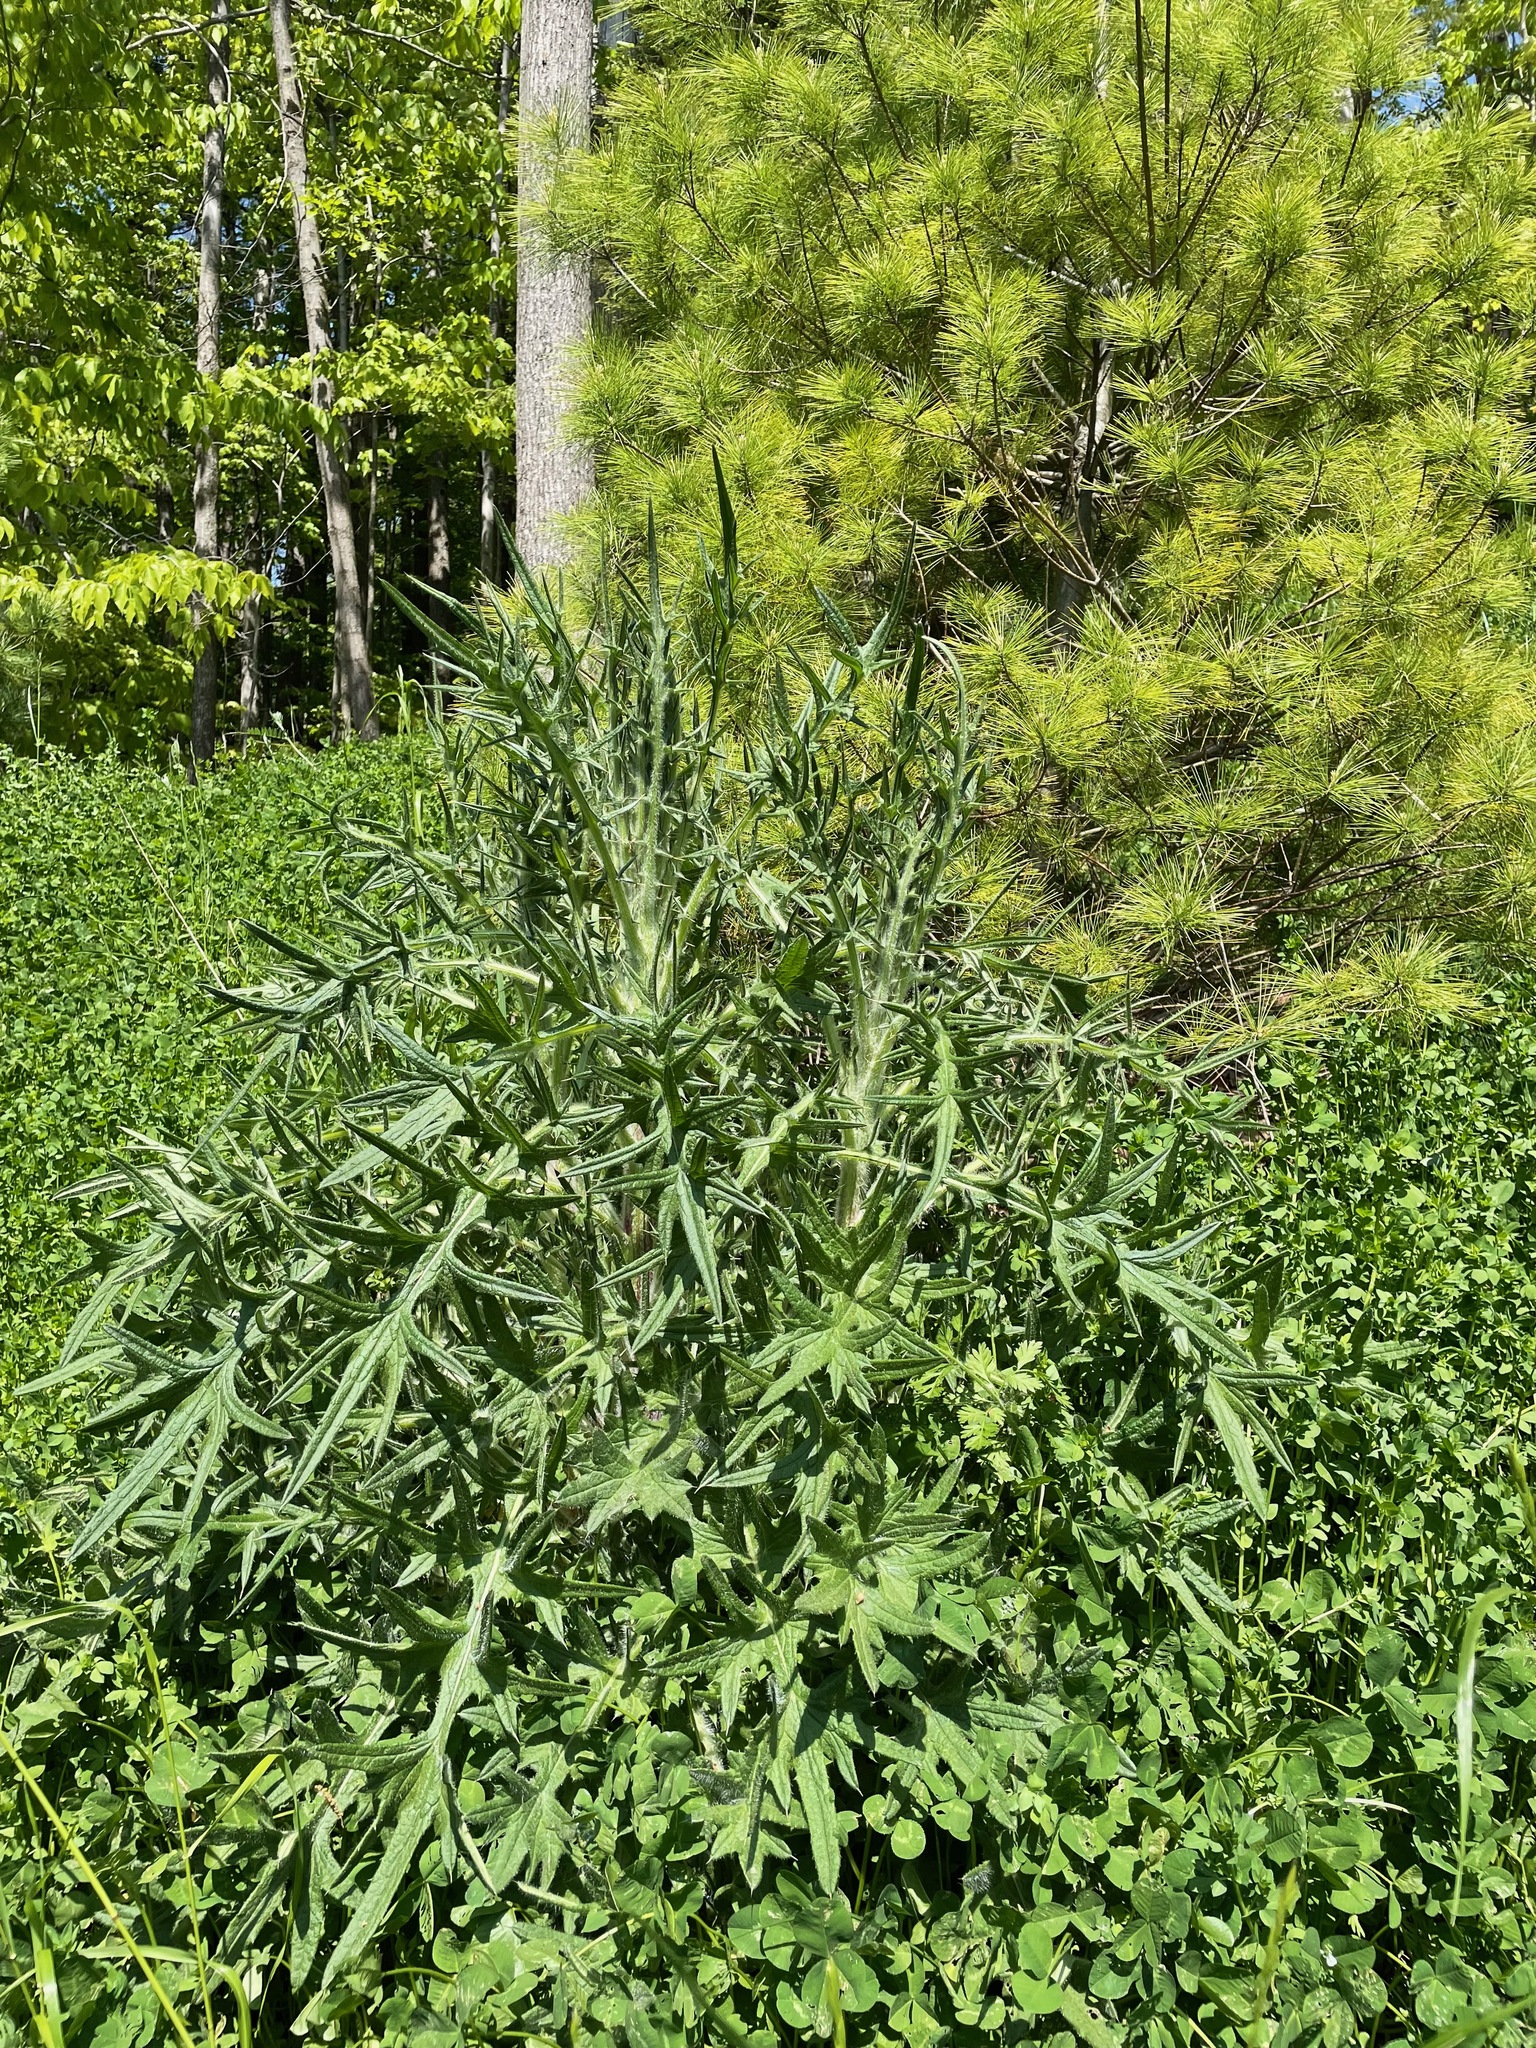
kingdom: Plantae
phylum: Tracheophyta
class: Magnoliopsida
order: Asterales
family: Asteraceae
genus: Cirsium
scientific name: Cirsium vulgare
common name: Bull thistle
